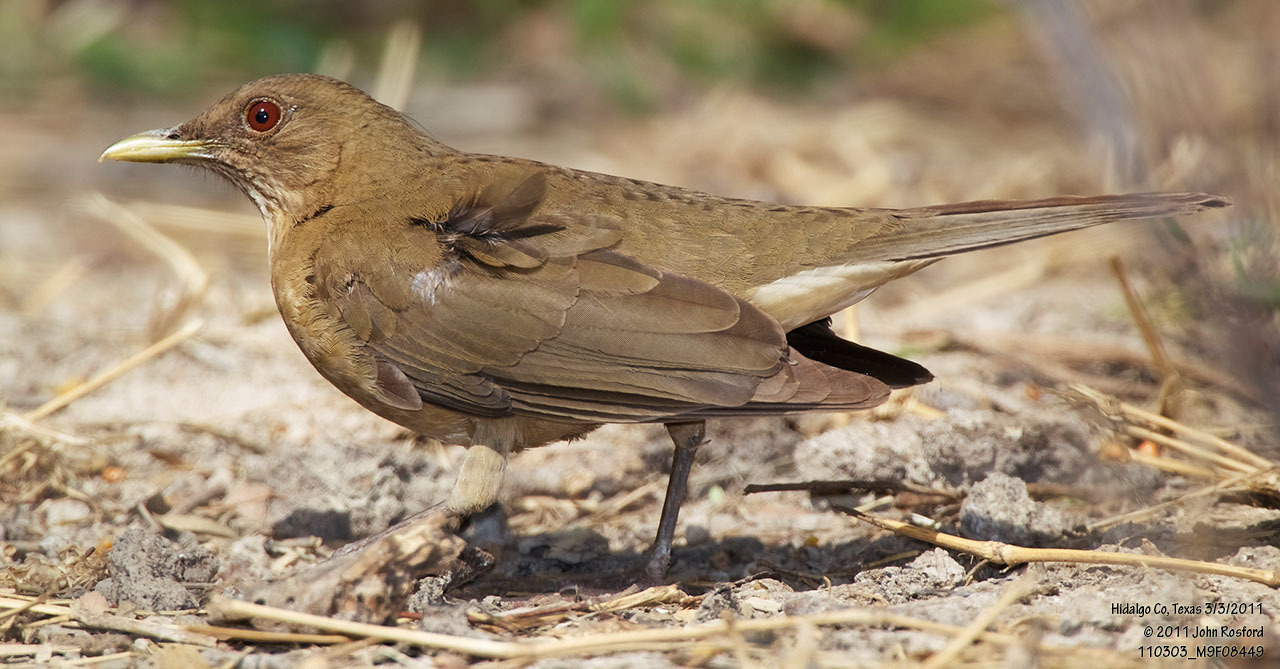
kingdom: Animalia
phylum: Chordata
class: Aves
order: Passeriformes
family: Turdidae
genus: Turdus
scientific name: Turdus grayi
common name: Clay-colored thrush
